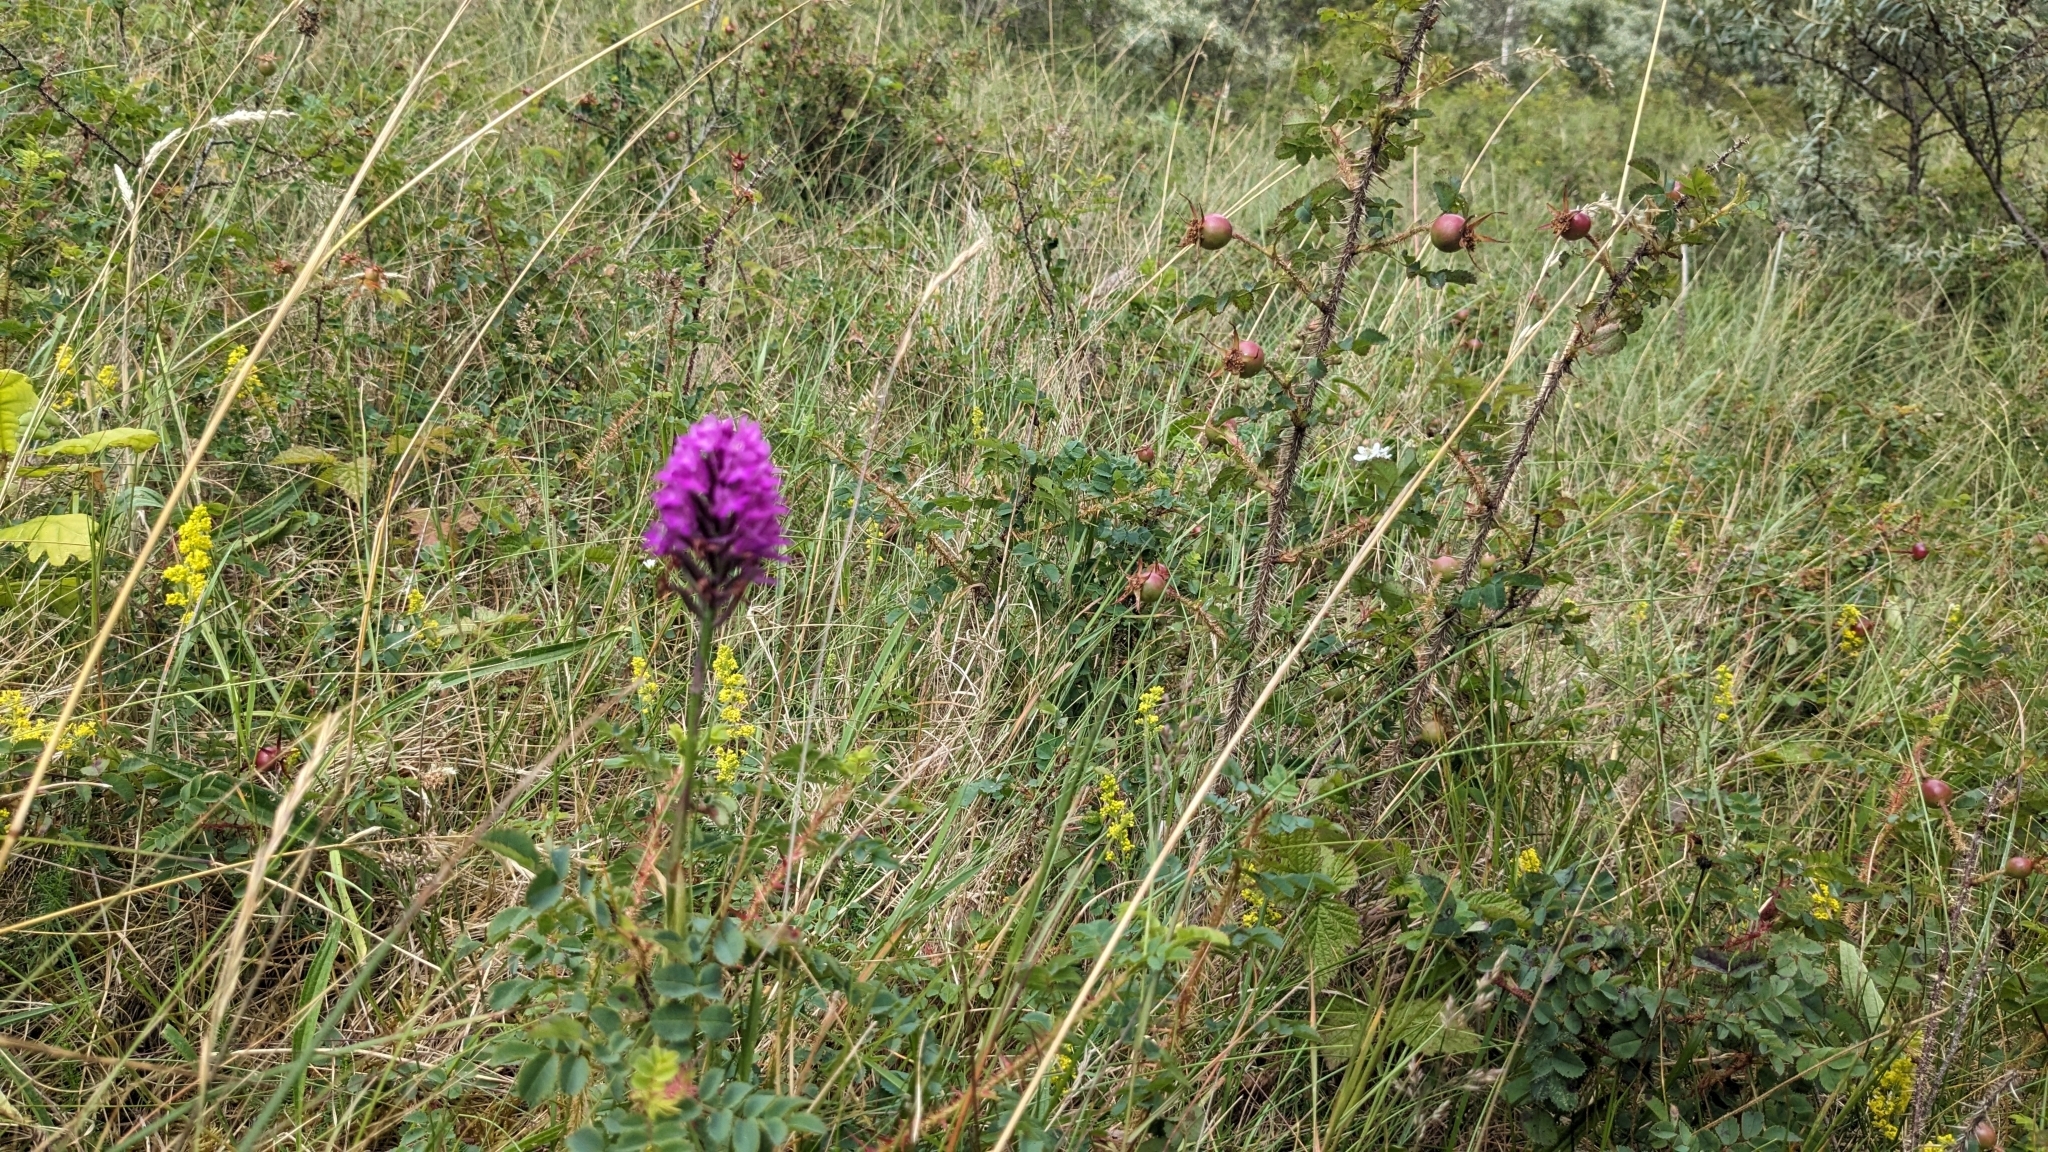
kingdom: Plantae
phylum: Tracheophyta
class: Liliopsida
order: Asparagales
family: Orchidaceae
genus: Anacamptis
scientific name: Anacamptis pyramidalis
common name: Pyramidal orchid
